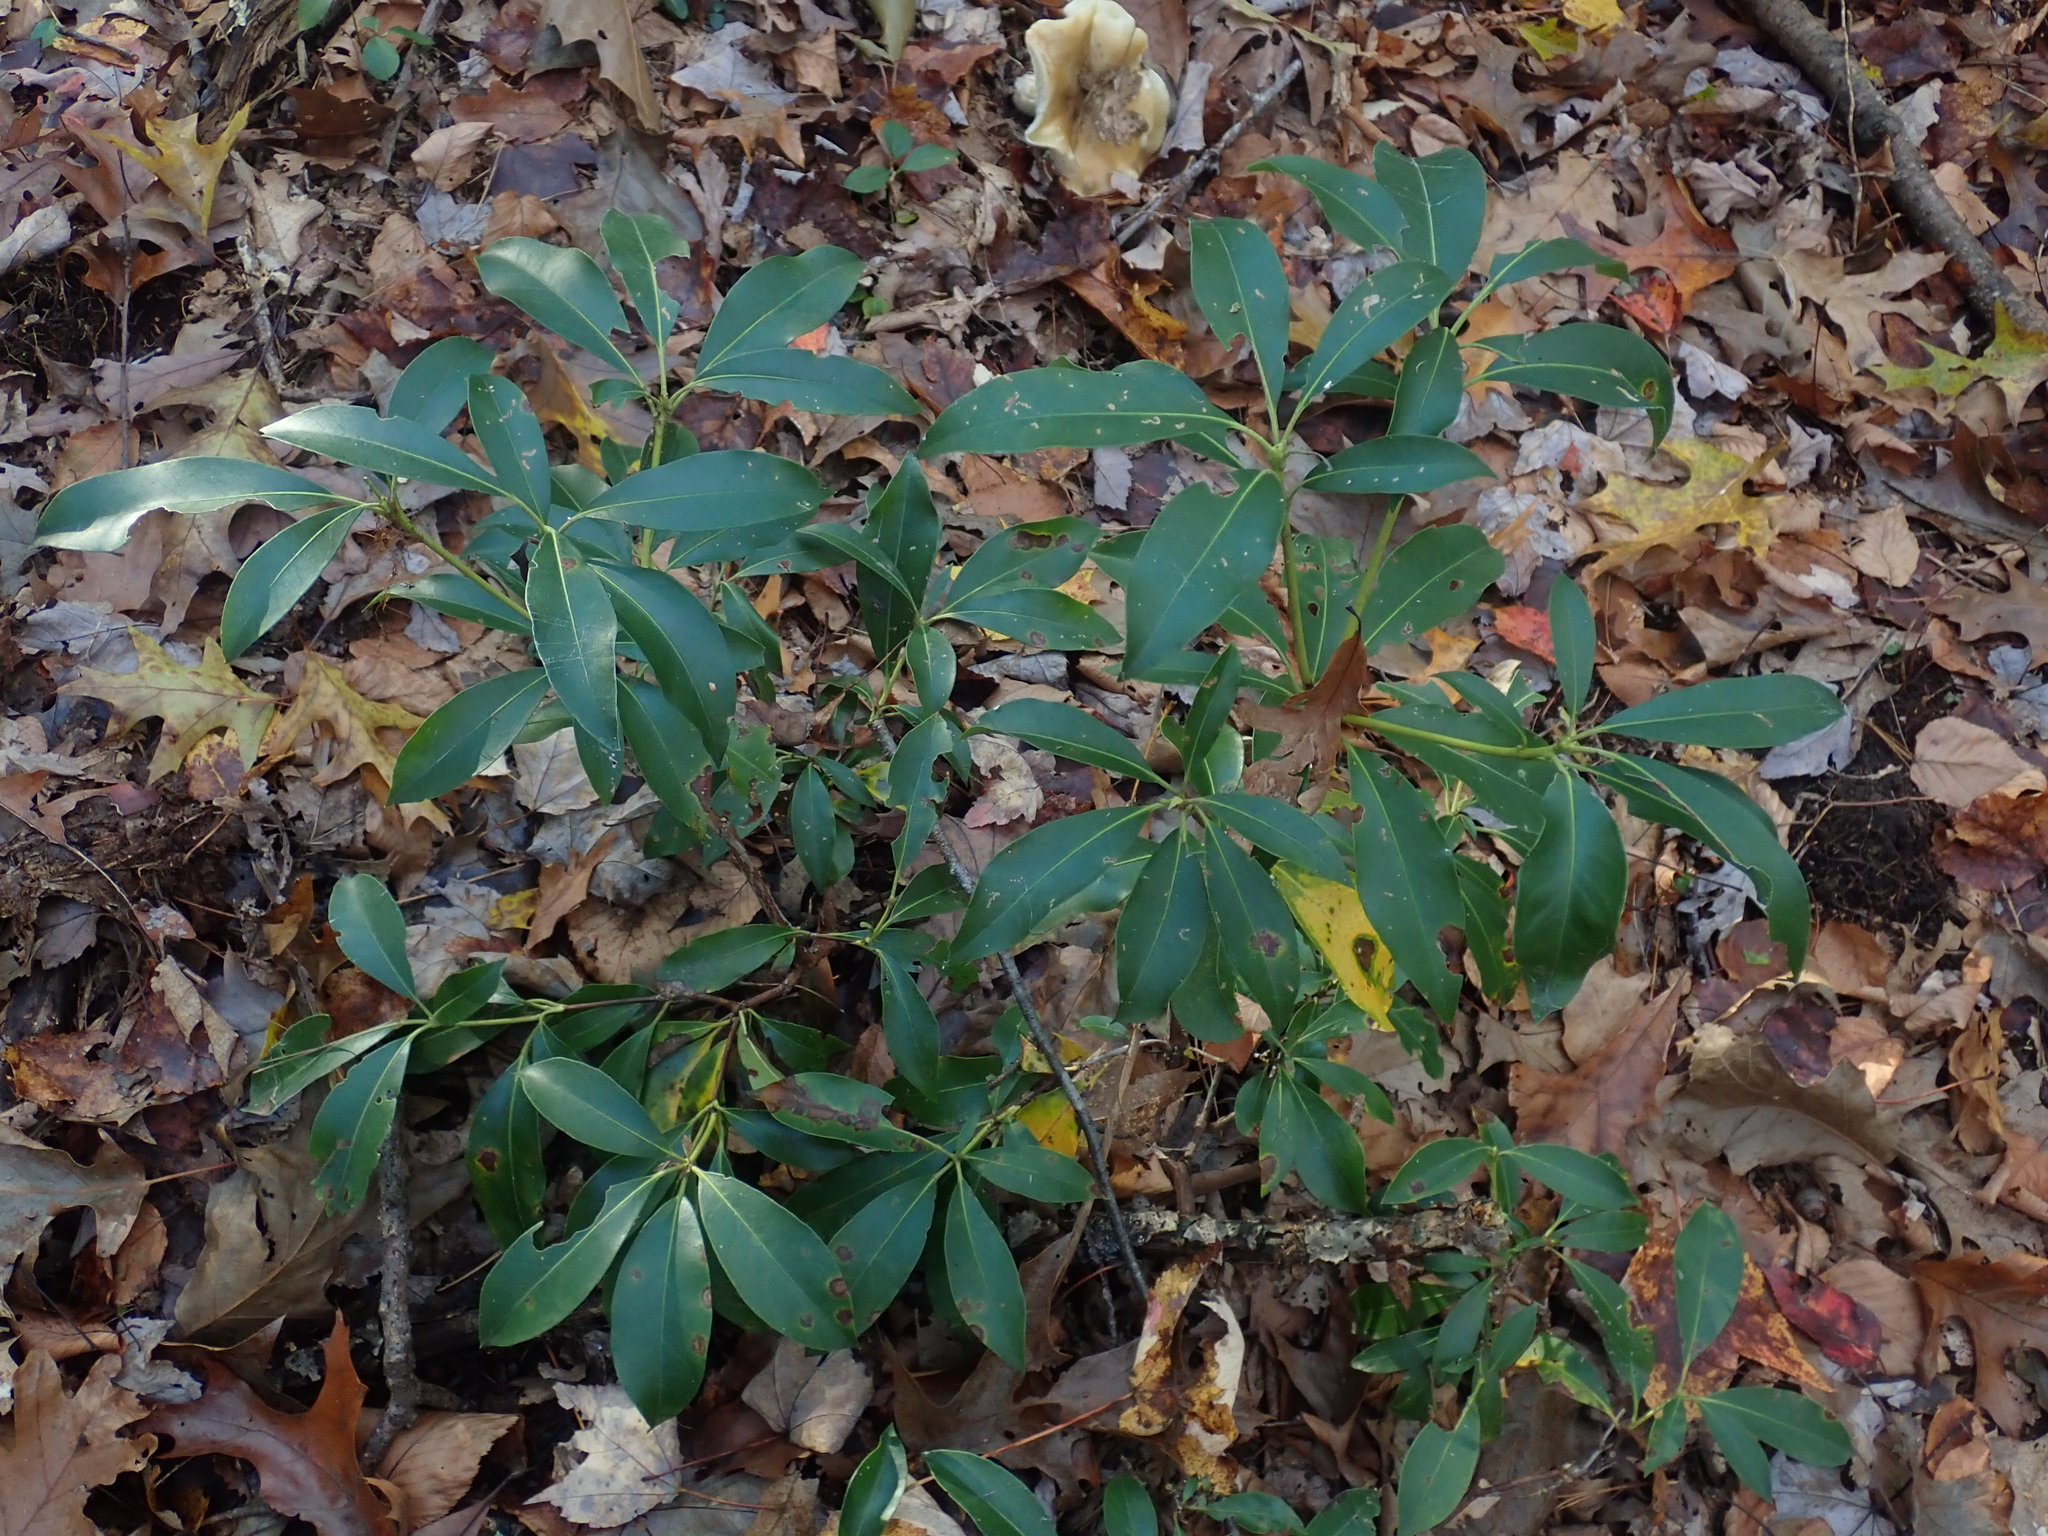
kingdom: Plantae
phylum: Tracheophyta
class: Magnoliopsida
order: Ericales
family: Ericaceae
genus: Kalmia
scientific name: Kalmia latifolia
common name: Mountain-laurel
